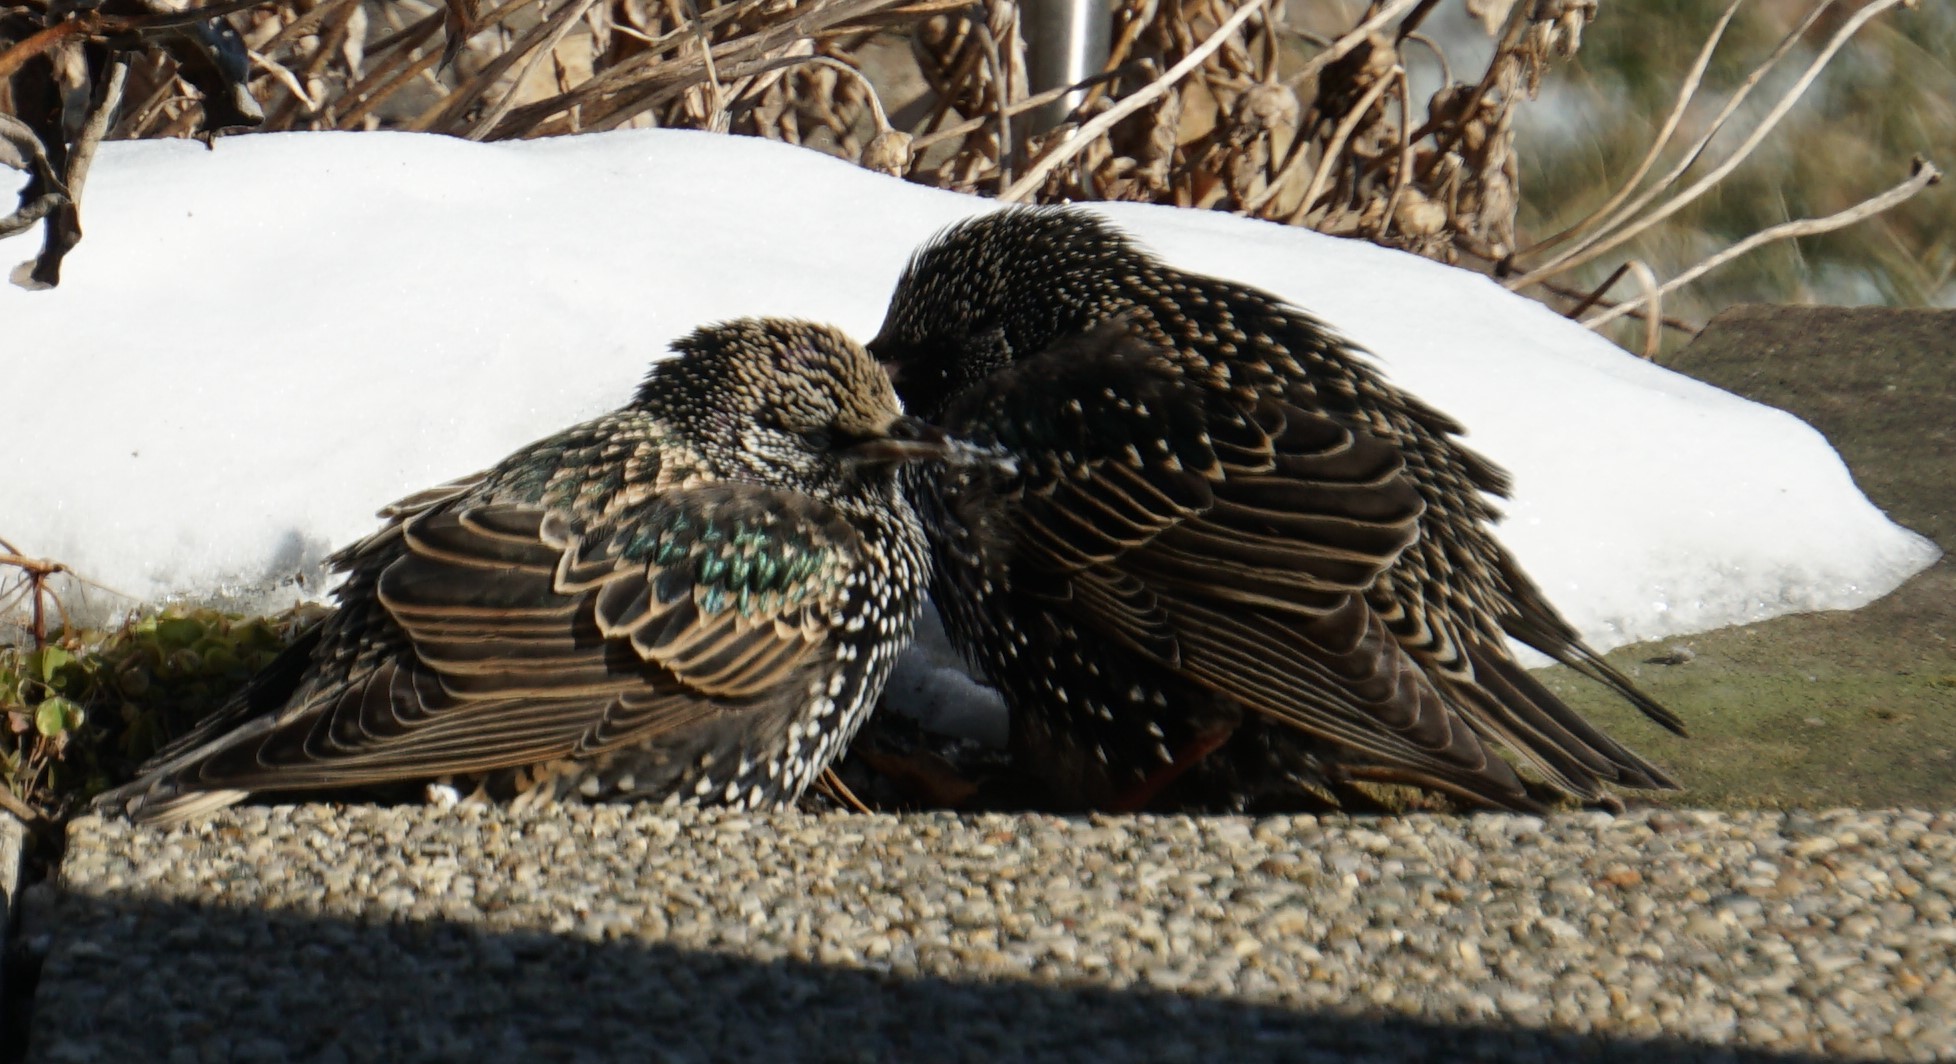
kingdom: Animalia
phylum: Chordata
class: Aves
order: Passeriformes
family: Sturnidae
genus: Sturnus
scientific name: Sturnus vulgaris
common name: Common starling
